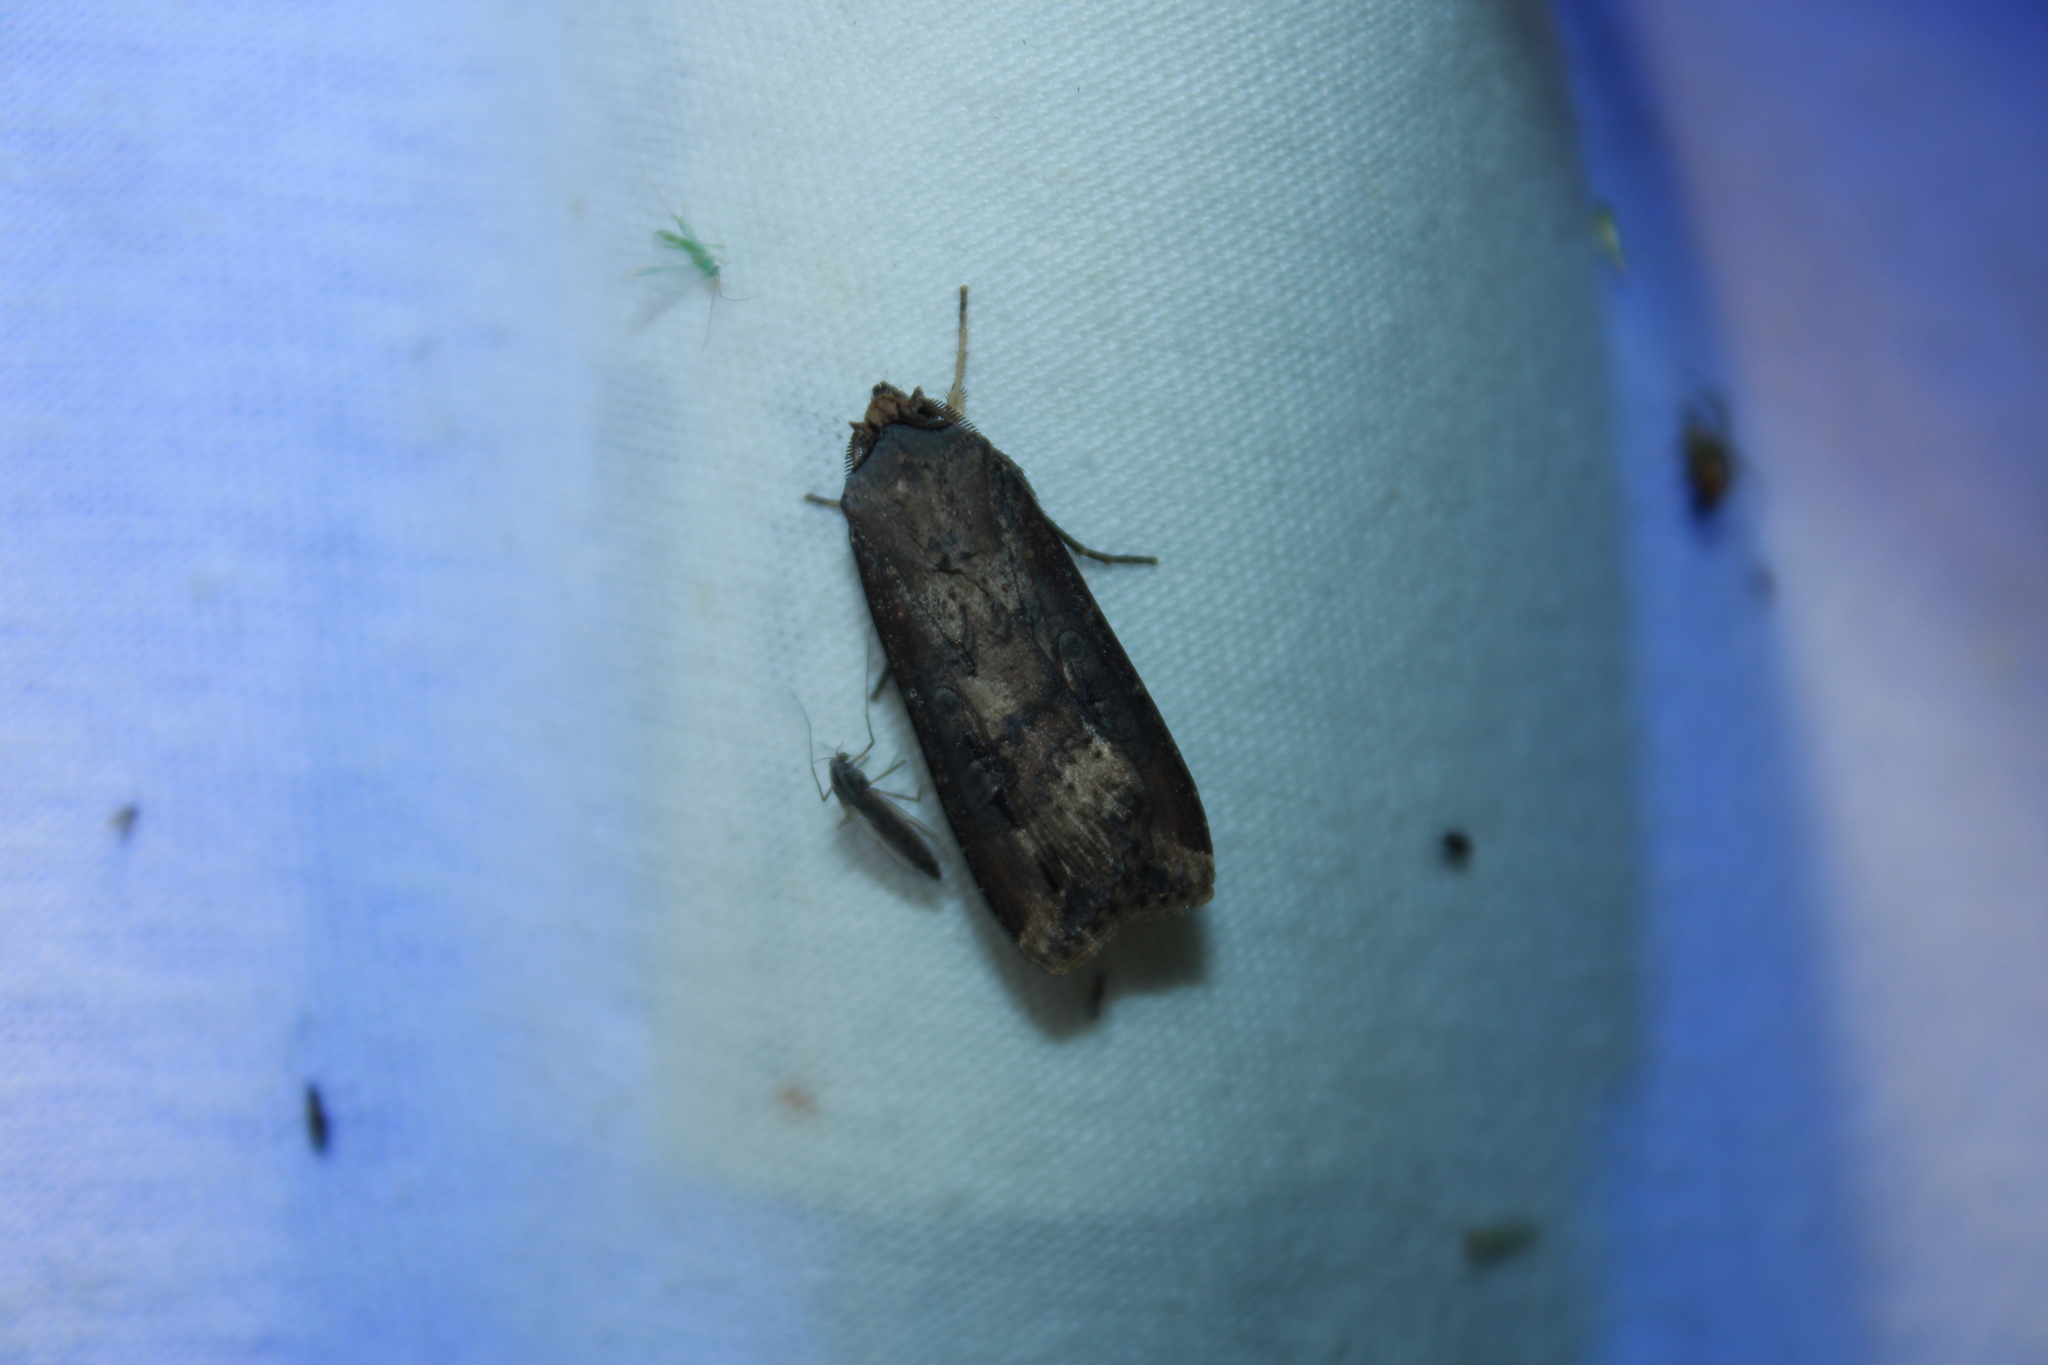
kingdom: Animalia
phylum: Arthropoda
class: Insecta
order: Lepidoptera
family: Noctuidae
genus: Agrotis
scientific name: Agrotis ipsilon
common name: Dark sword-grass
